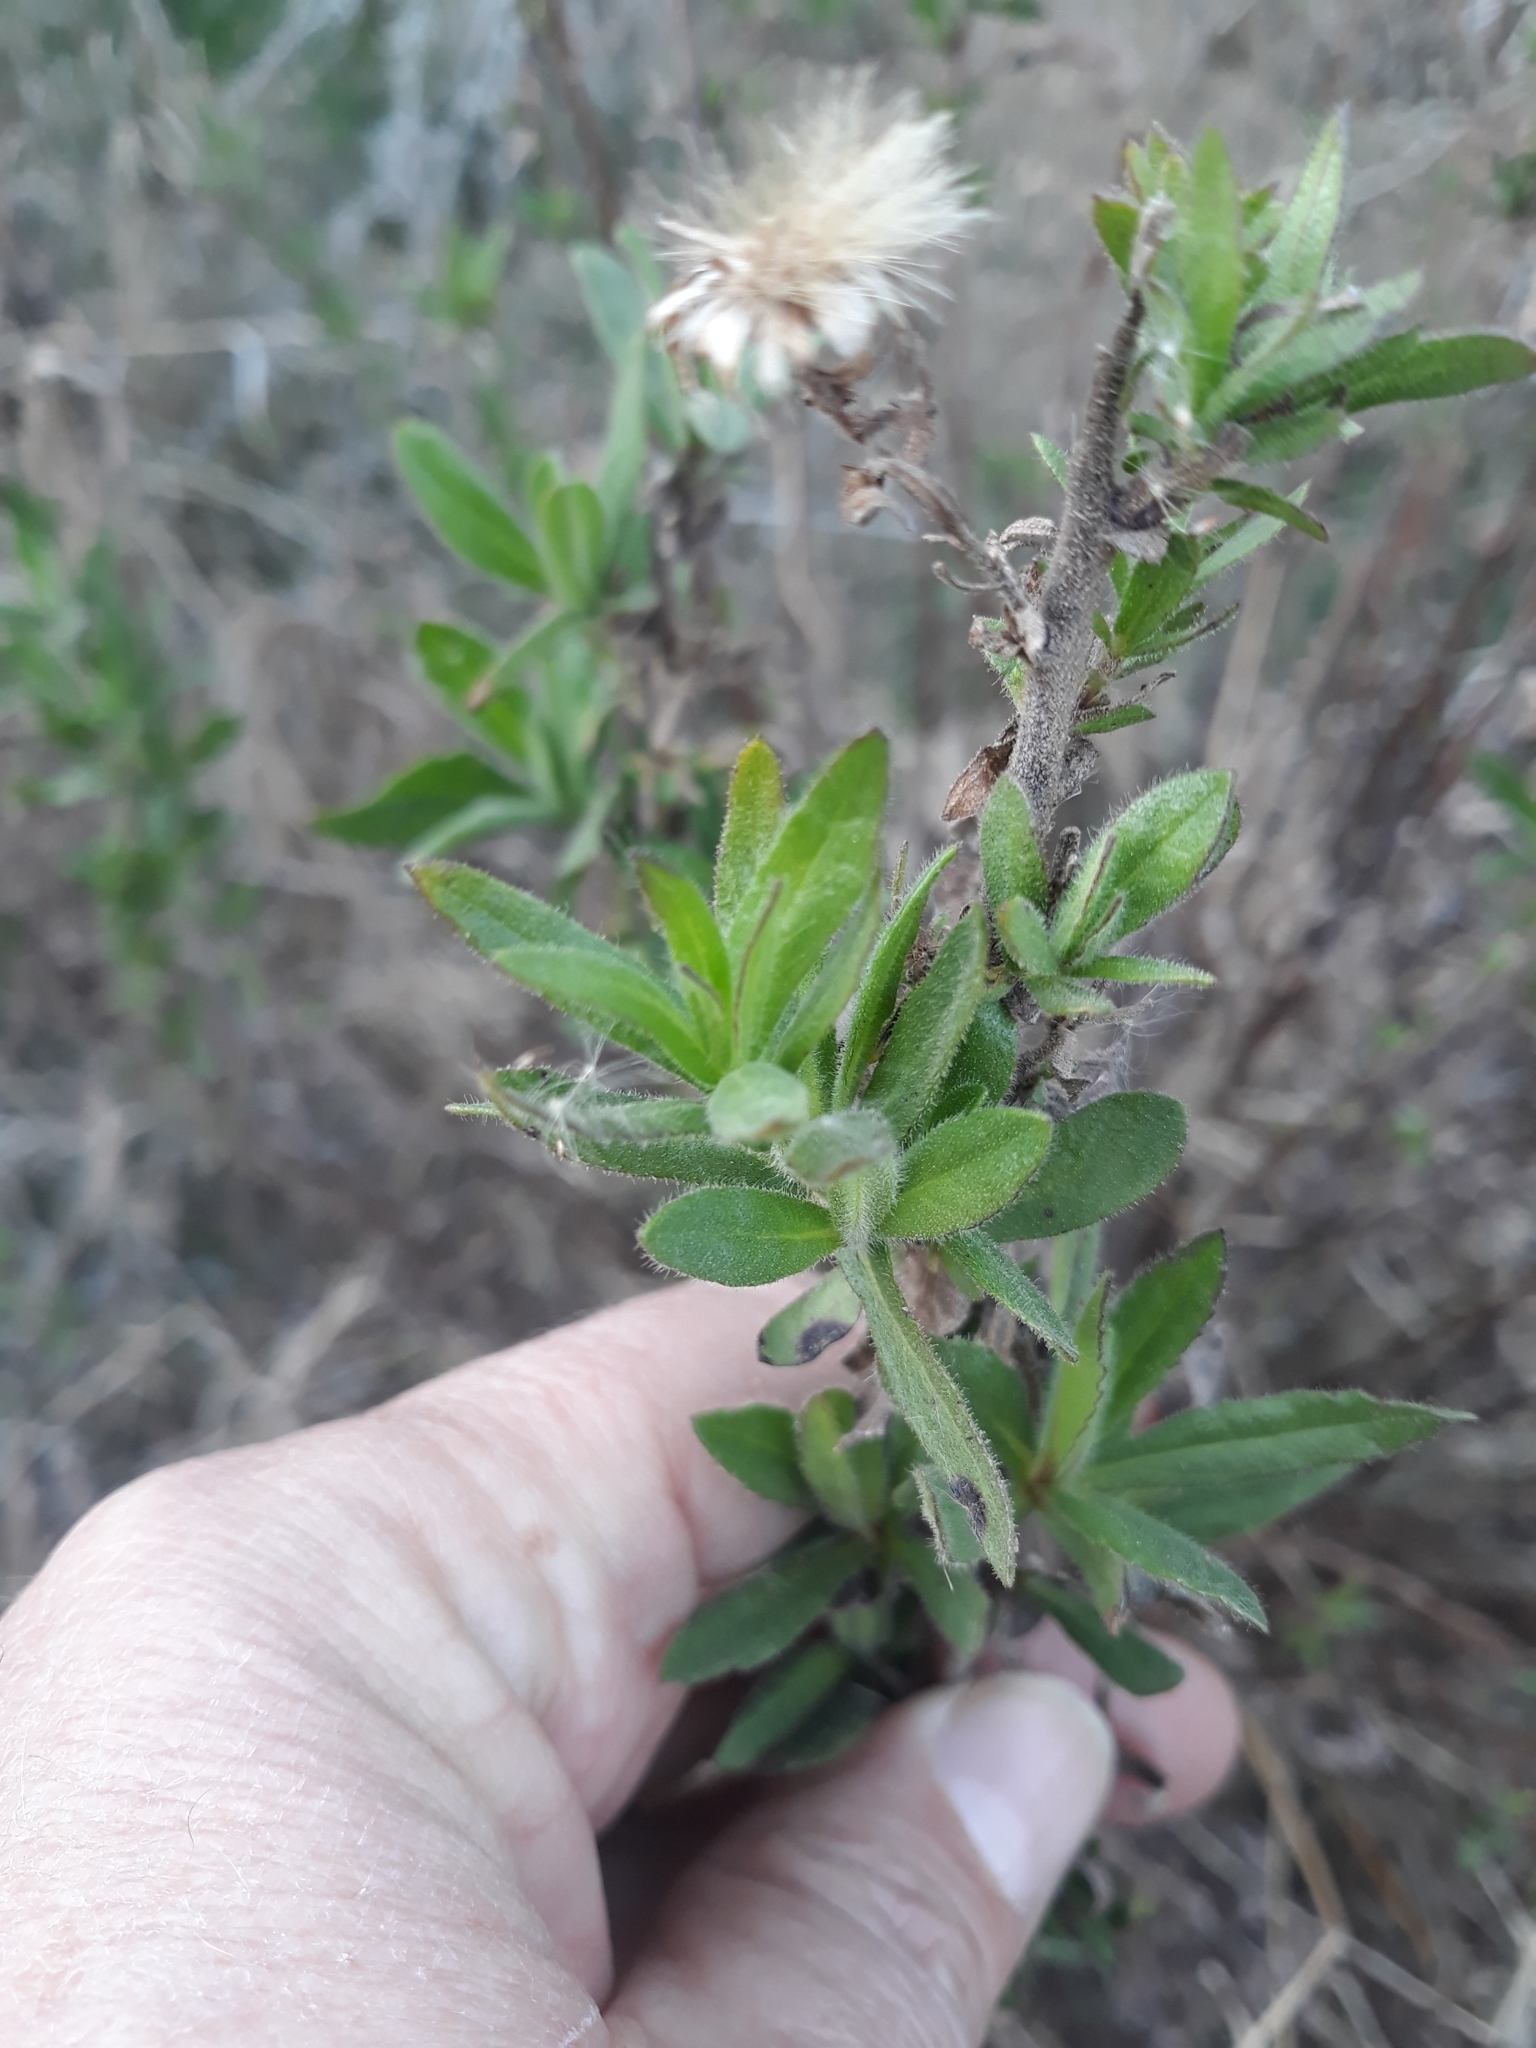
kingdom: Plantae
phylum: Tracheophyta
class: Magnoliopsida
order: Asterales
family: Asteraceae
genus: Dittrichia
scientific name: Dittrichia viscosa
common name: Woody fleabane
